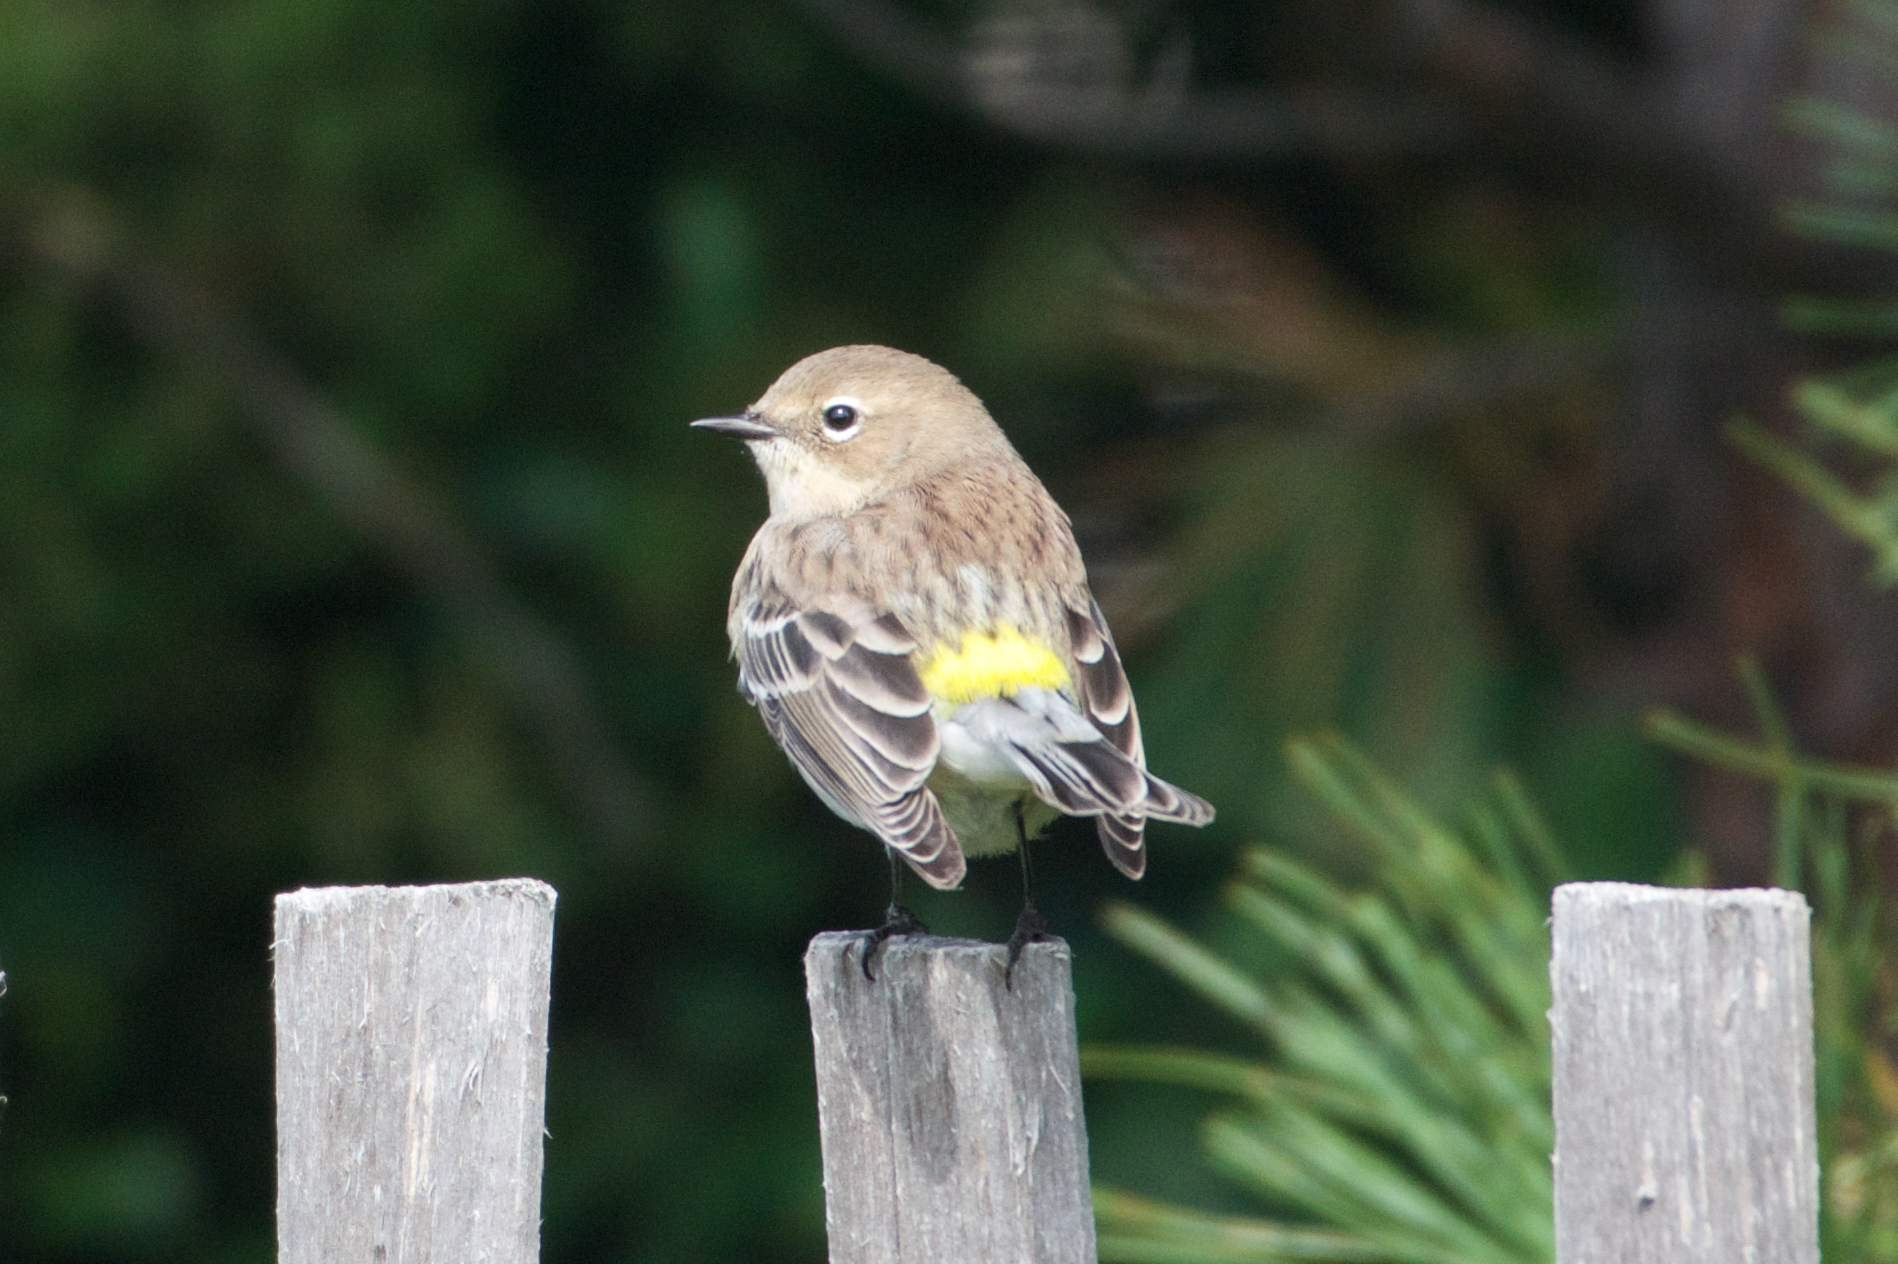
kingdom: Animalia
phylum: Chordata
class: Aves
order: Passeriformes
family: Parulidae
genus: Setophaga
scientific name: Setophaga coronata
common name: Myrtle warbler
